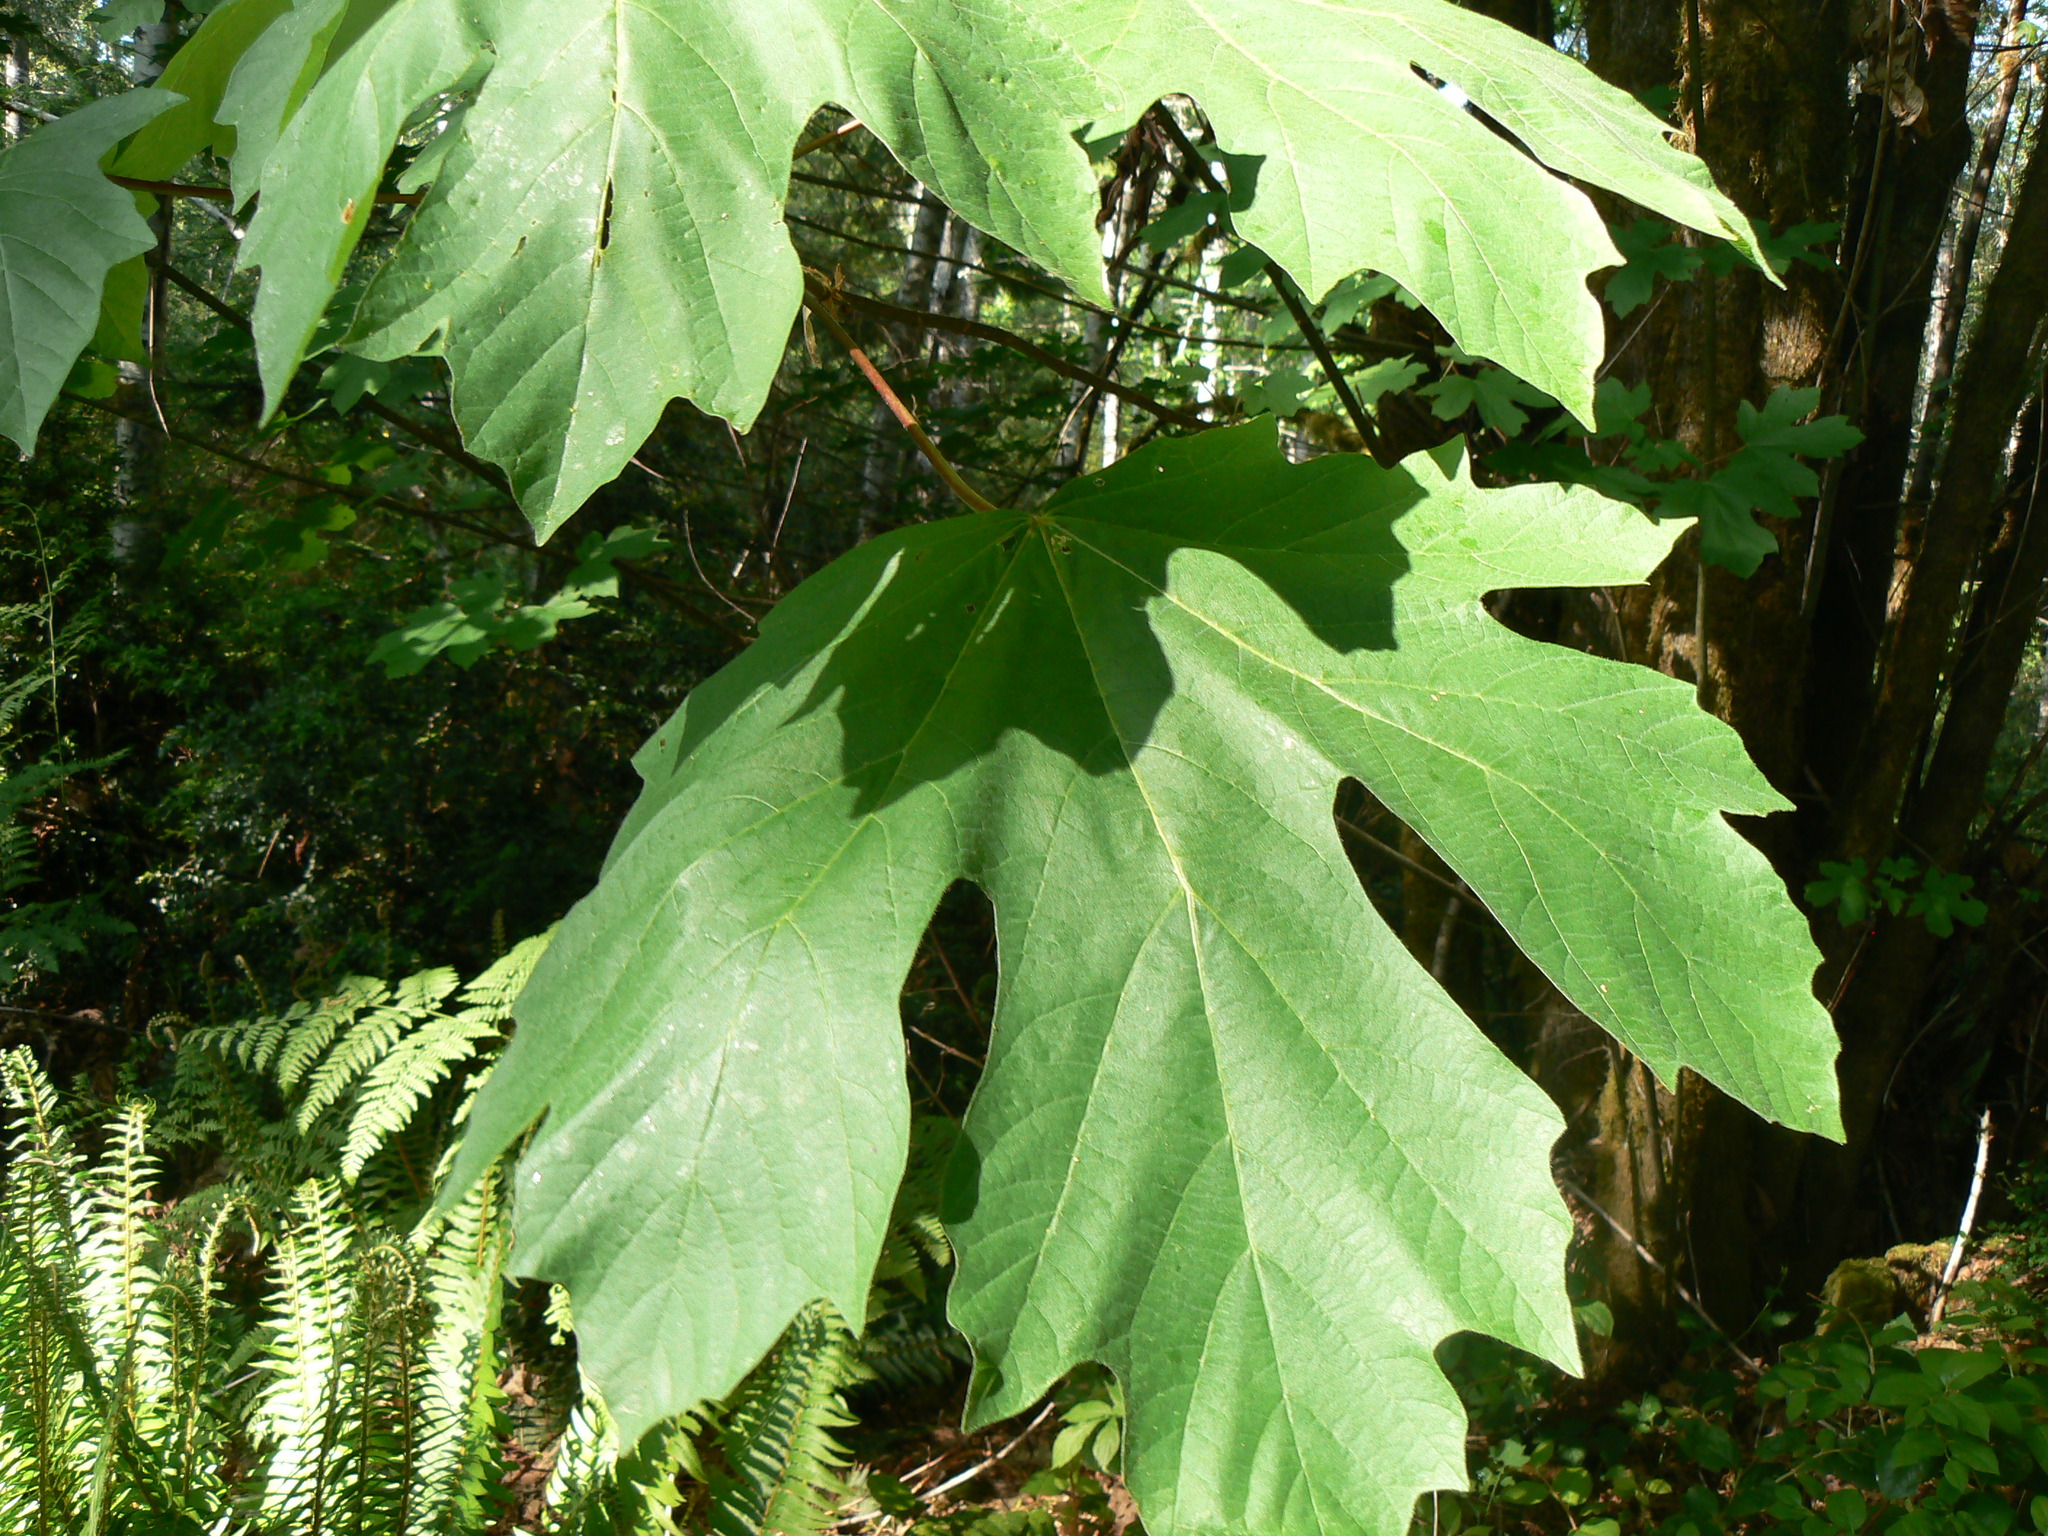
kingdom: Plantae
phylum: Tracheophyta
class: Magnoliopsida
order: Sapindales
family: Sapindaceae
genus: Acer
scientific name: Acer macrophyllum
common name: Oregon maple
